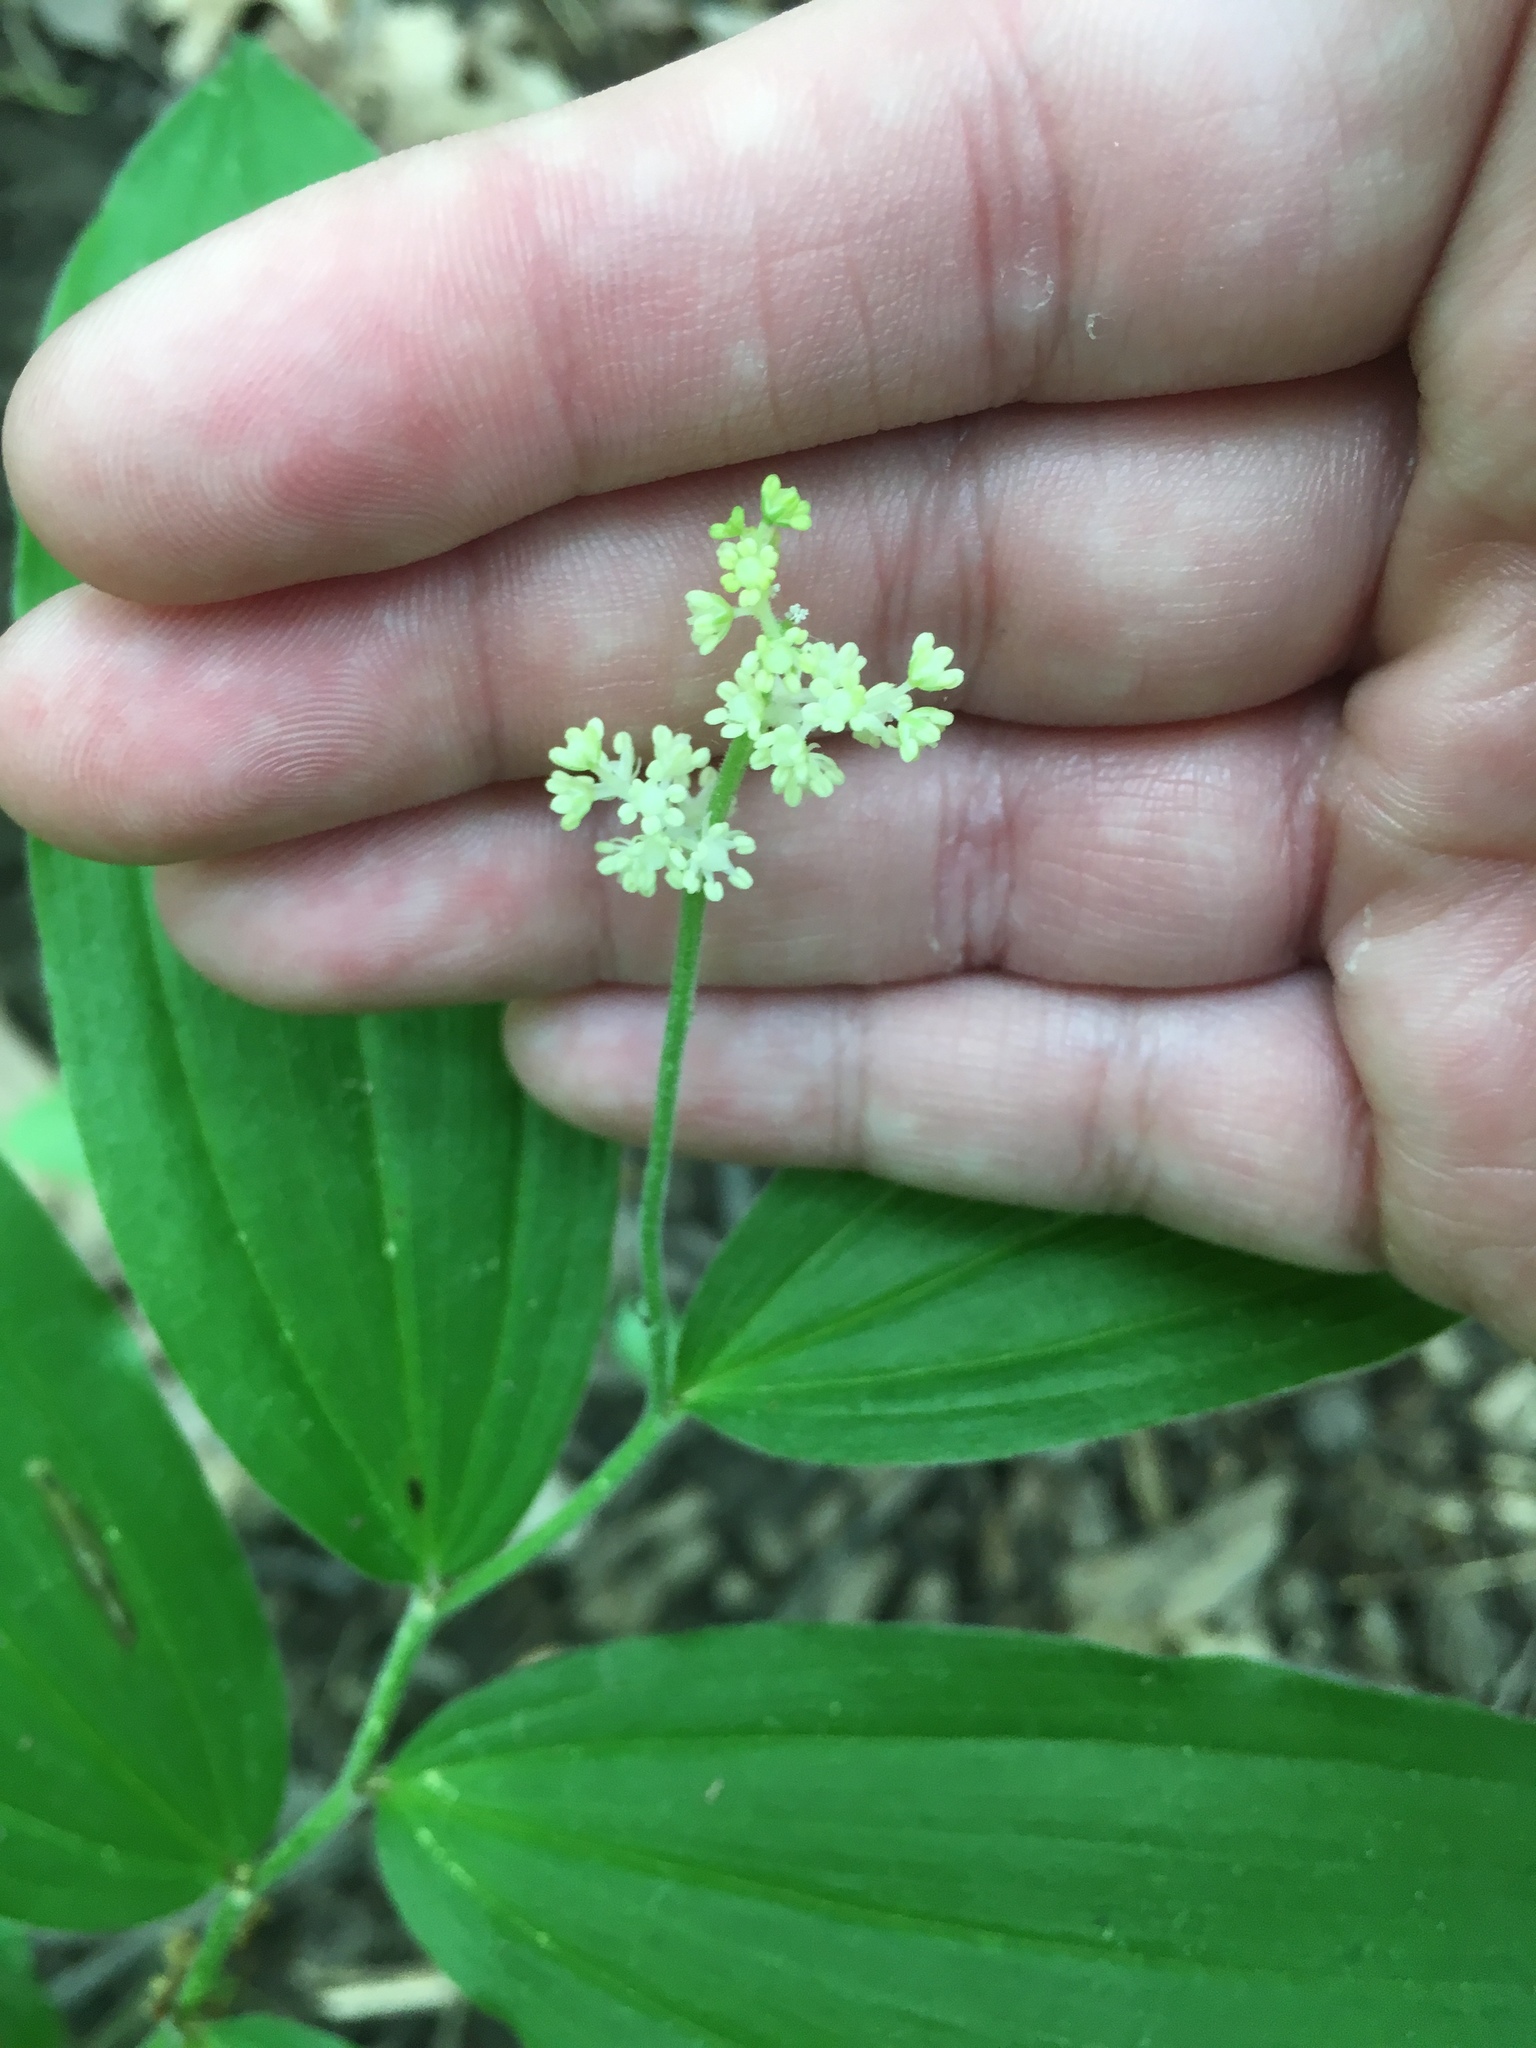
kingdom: Plantae
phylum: Tracheophyta
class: Liliopsida
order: Asparagales
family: Asparagaceae
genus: Maianthemum
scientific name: Maianthemum racemosum
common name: False spikenard
